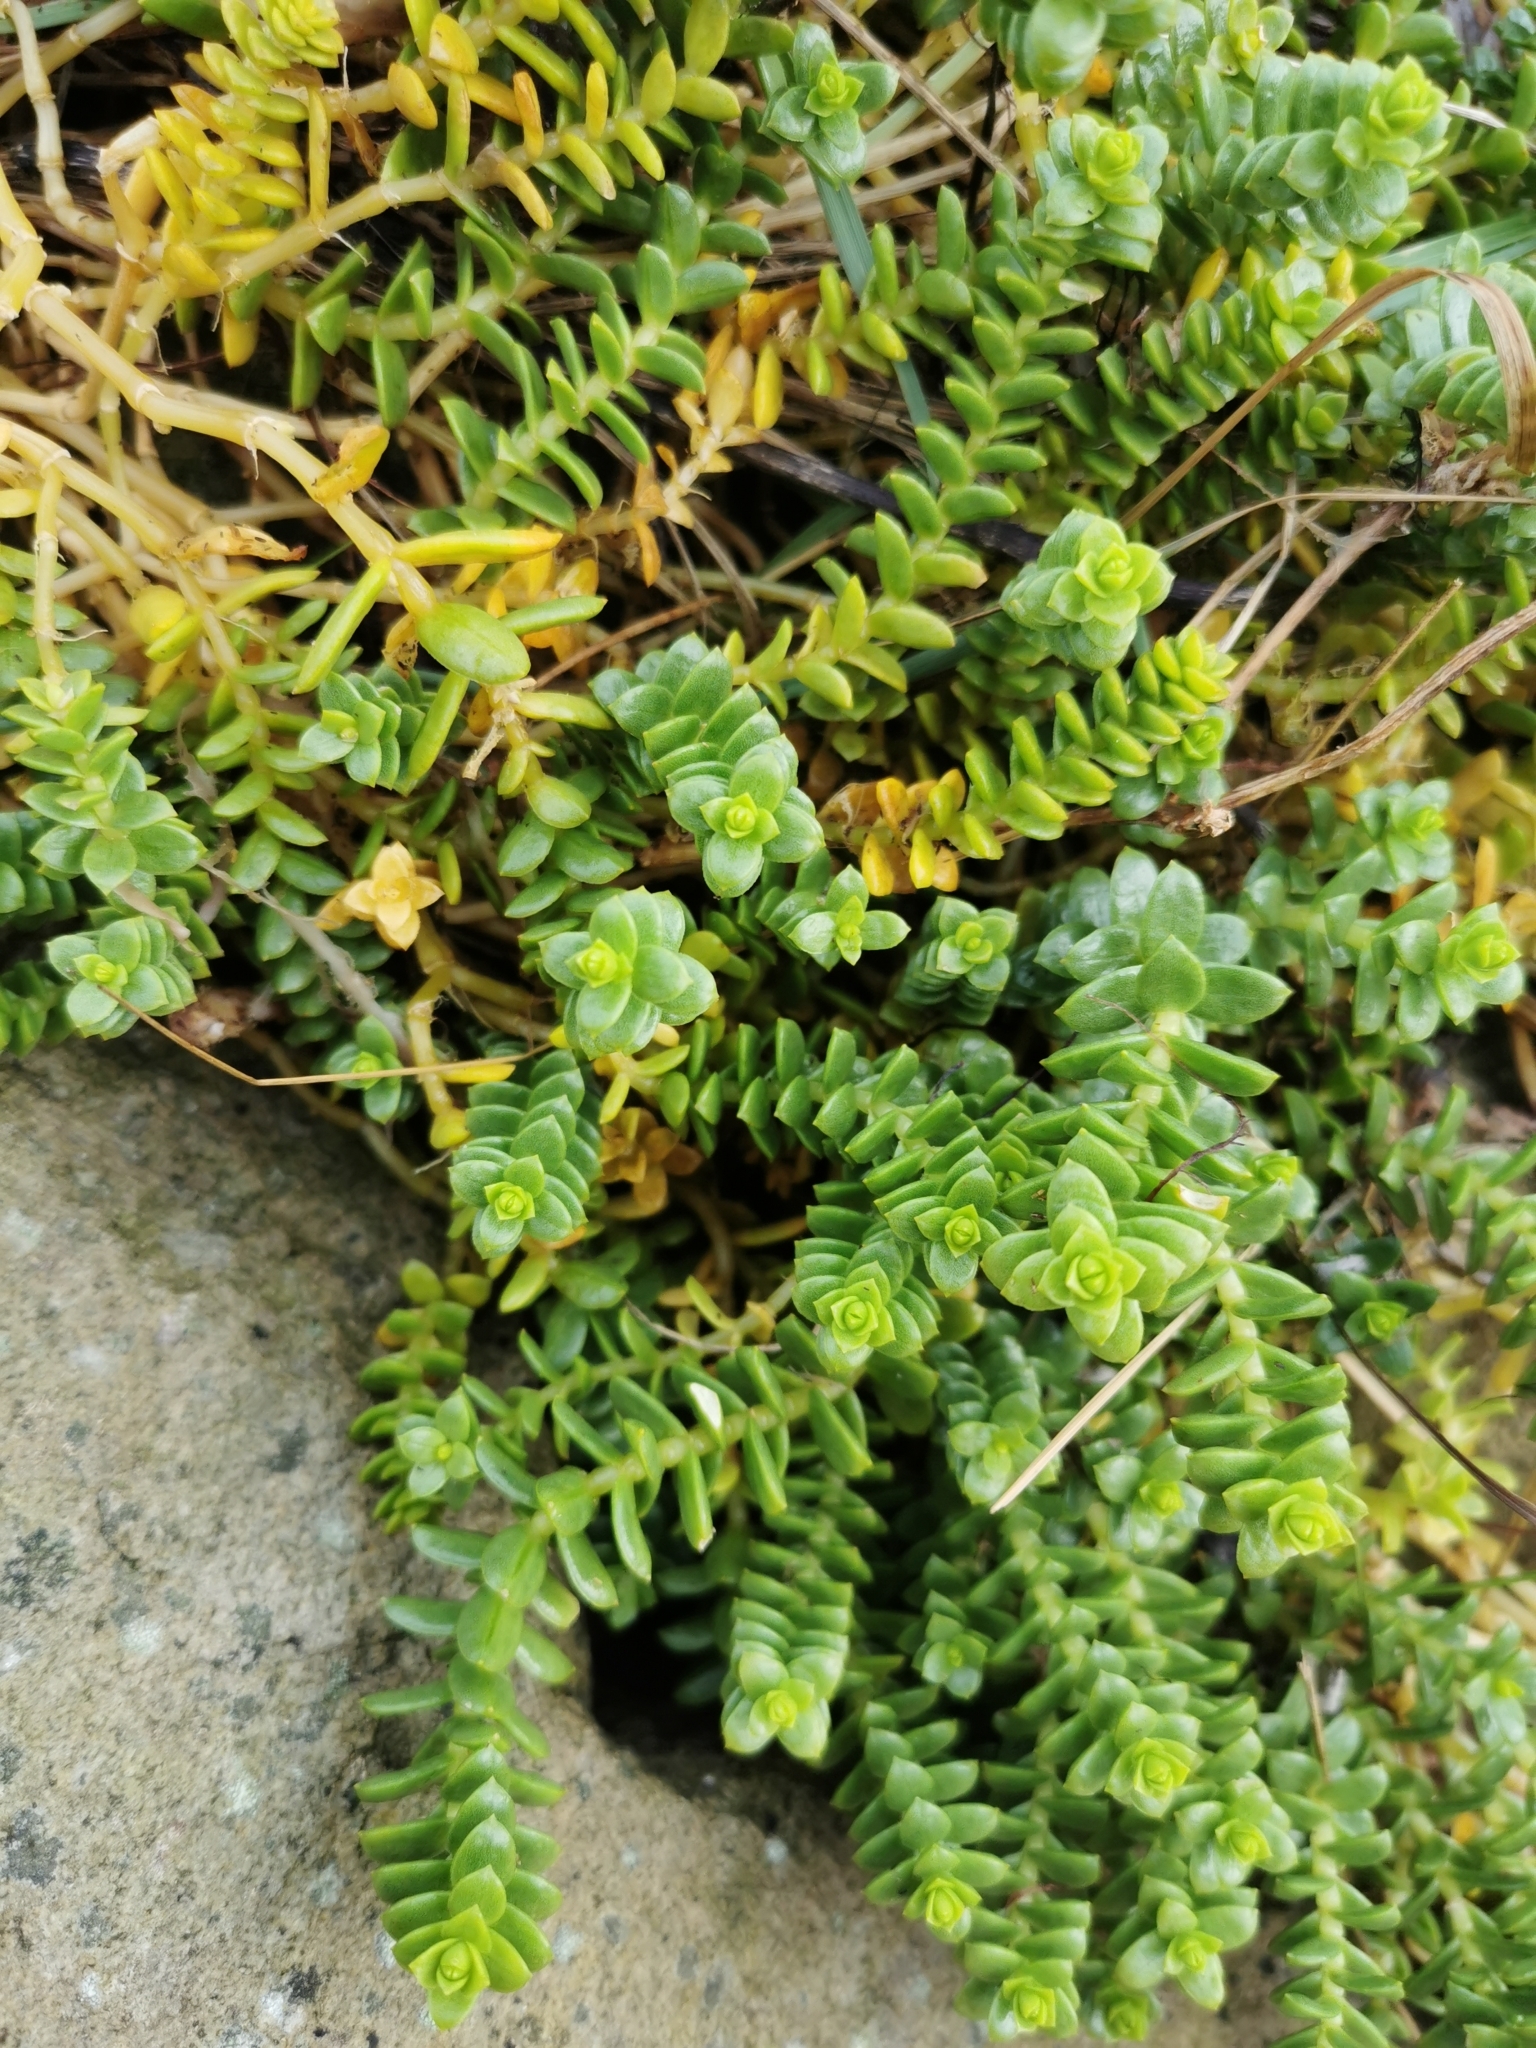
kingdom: Plantae
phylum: Tracheophyta
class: Magnoliopsida
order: Caryophyllales
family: Caryophyllaceae
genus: Honckenya
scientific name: Honckenya peploides
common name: Sea sandwort
